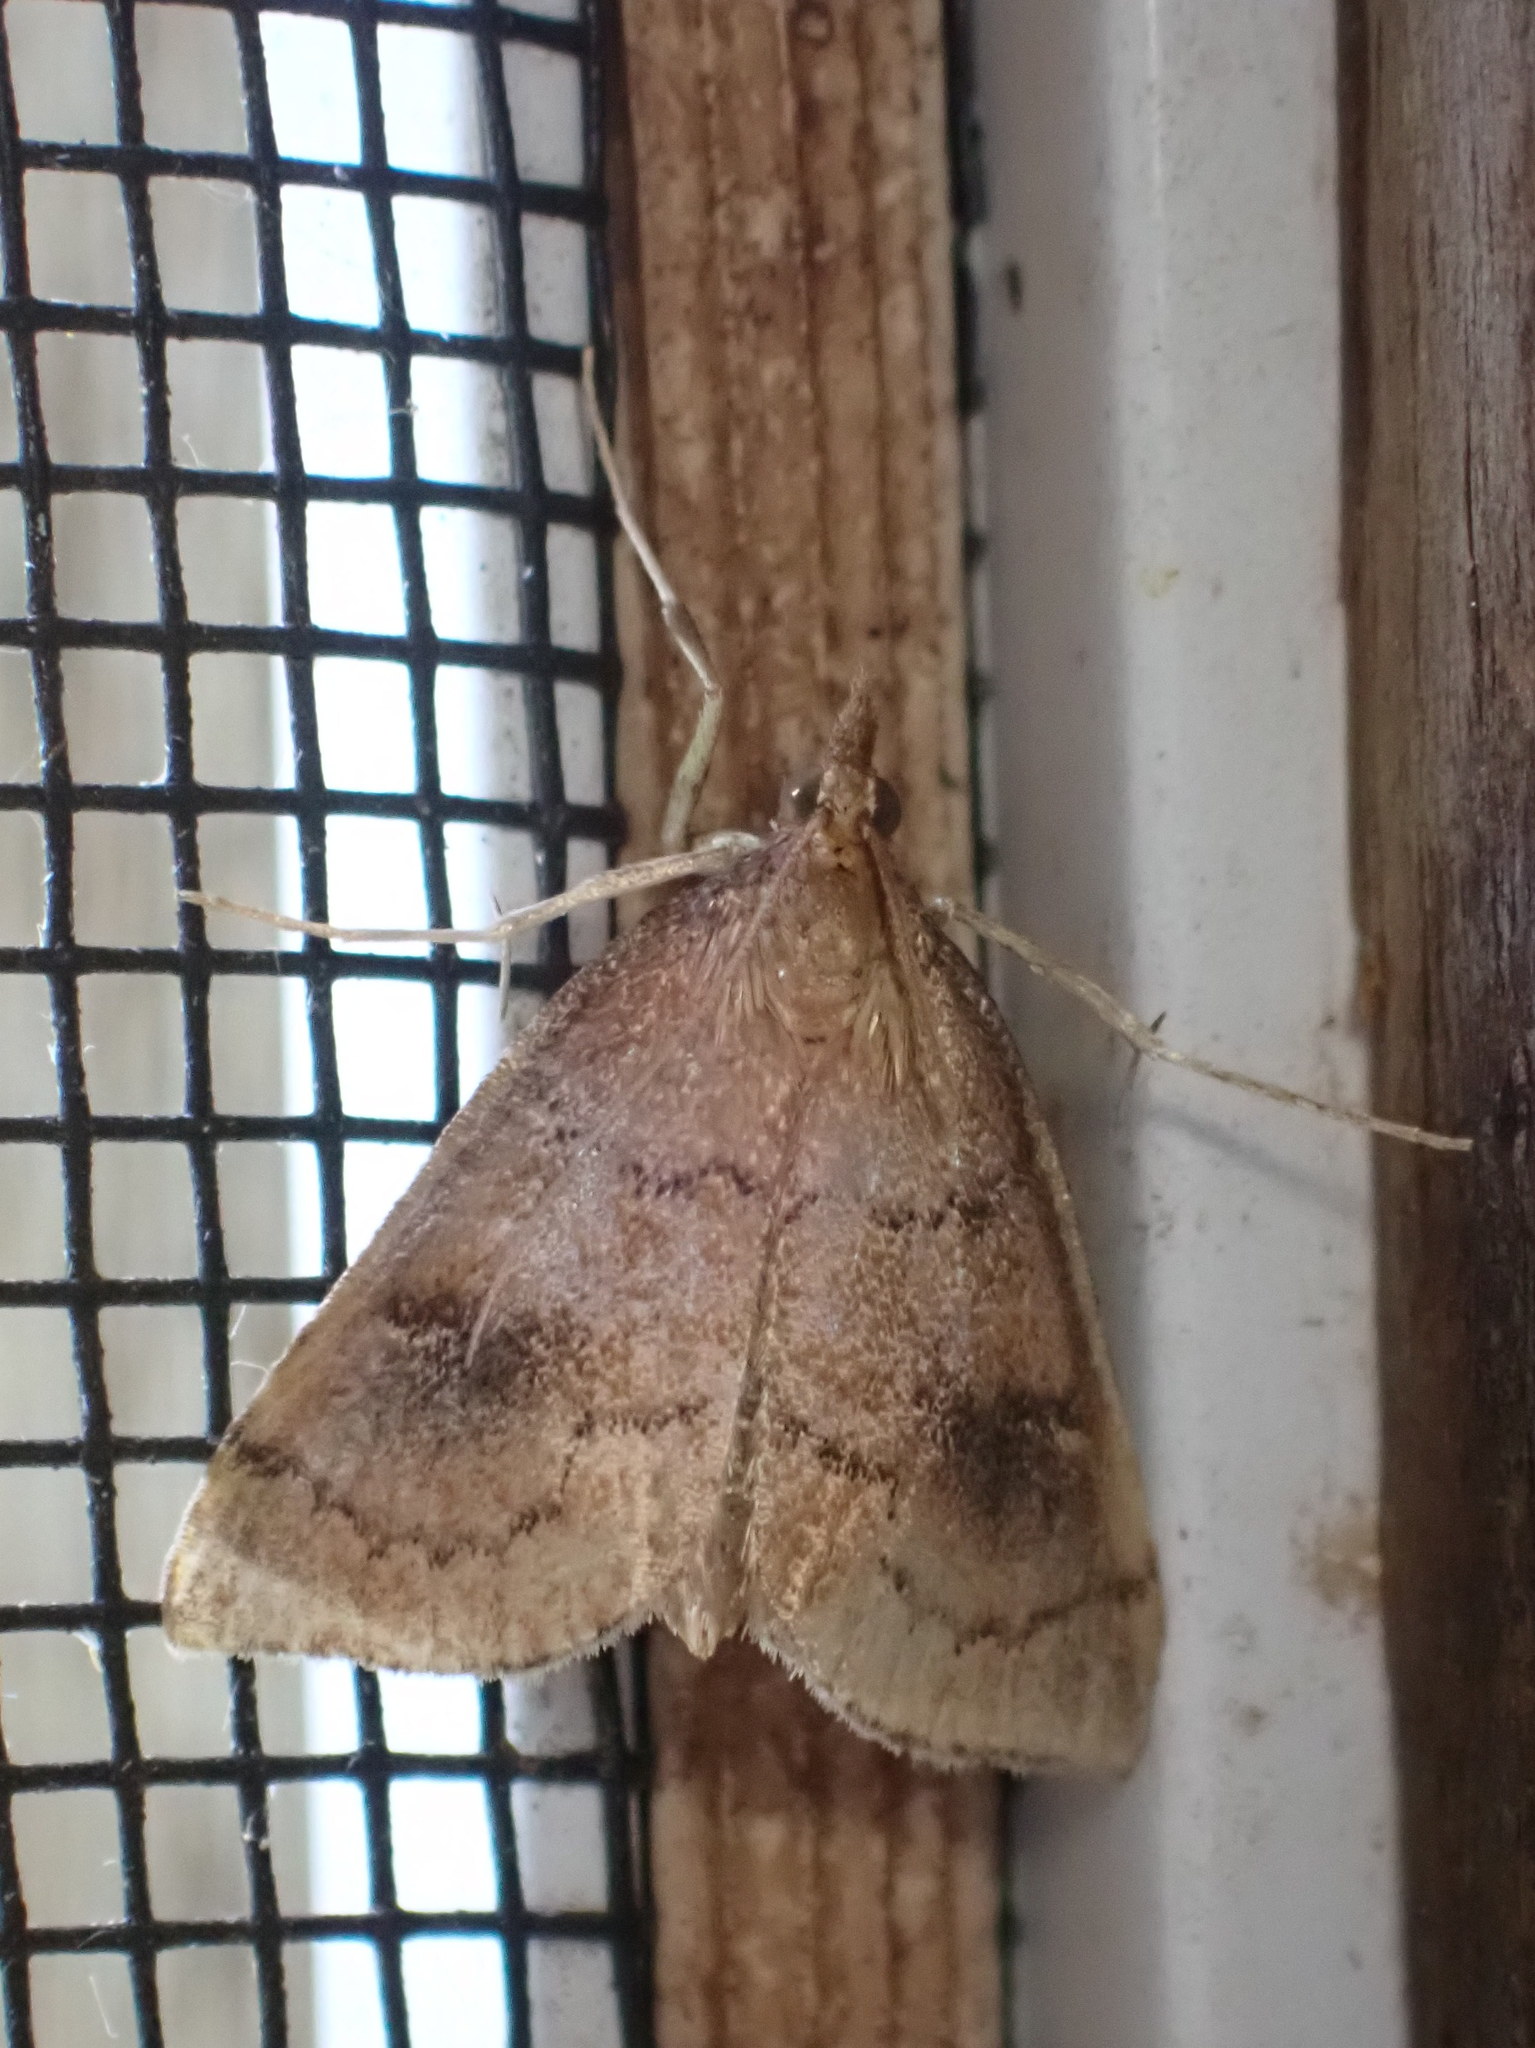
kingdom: Animalia
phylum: Arthropoda
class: Insecta
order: Lepidoptera
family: Crambidae
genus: Fumibotys
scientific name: Fumibotys fumalis
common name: Mint root borer moth
